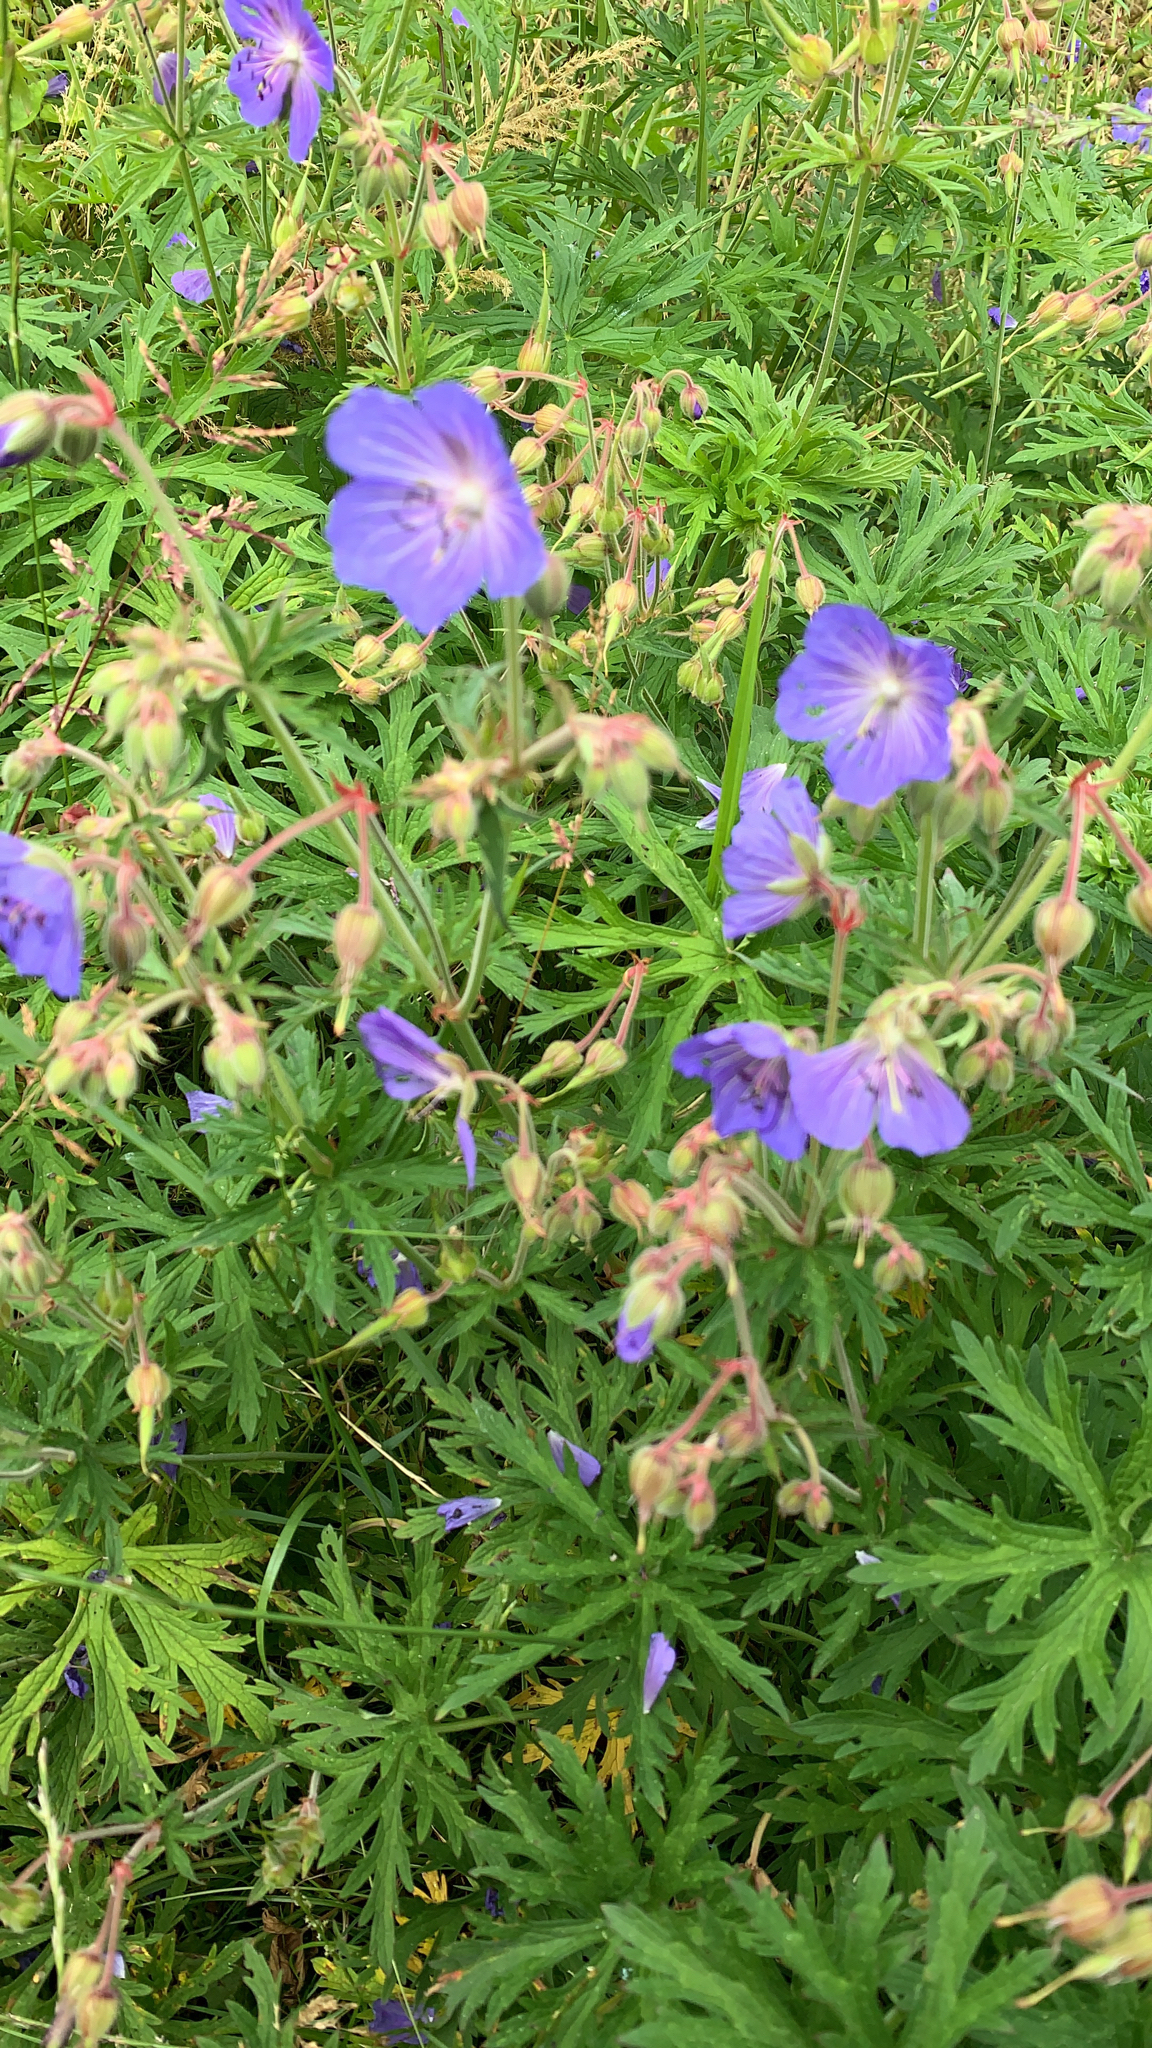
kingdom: Plantae
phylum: Tracheophyta
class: Magnoliopsida
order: Geraniales
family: Geraniaceae
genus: Geranium
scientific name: Geranium pratense
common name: Meadow crane's-bill
